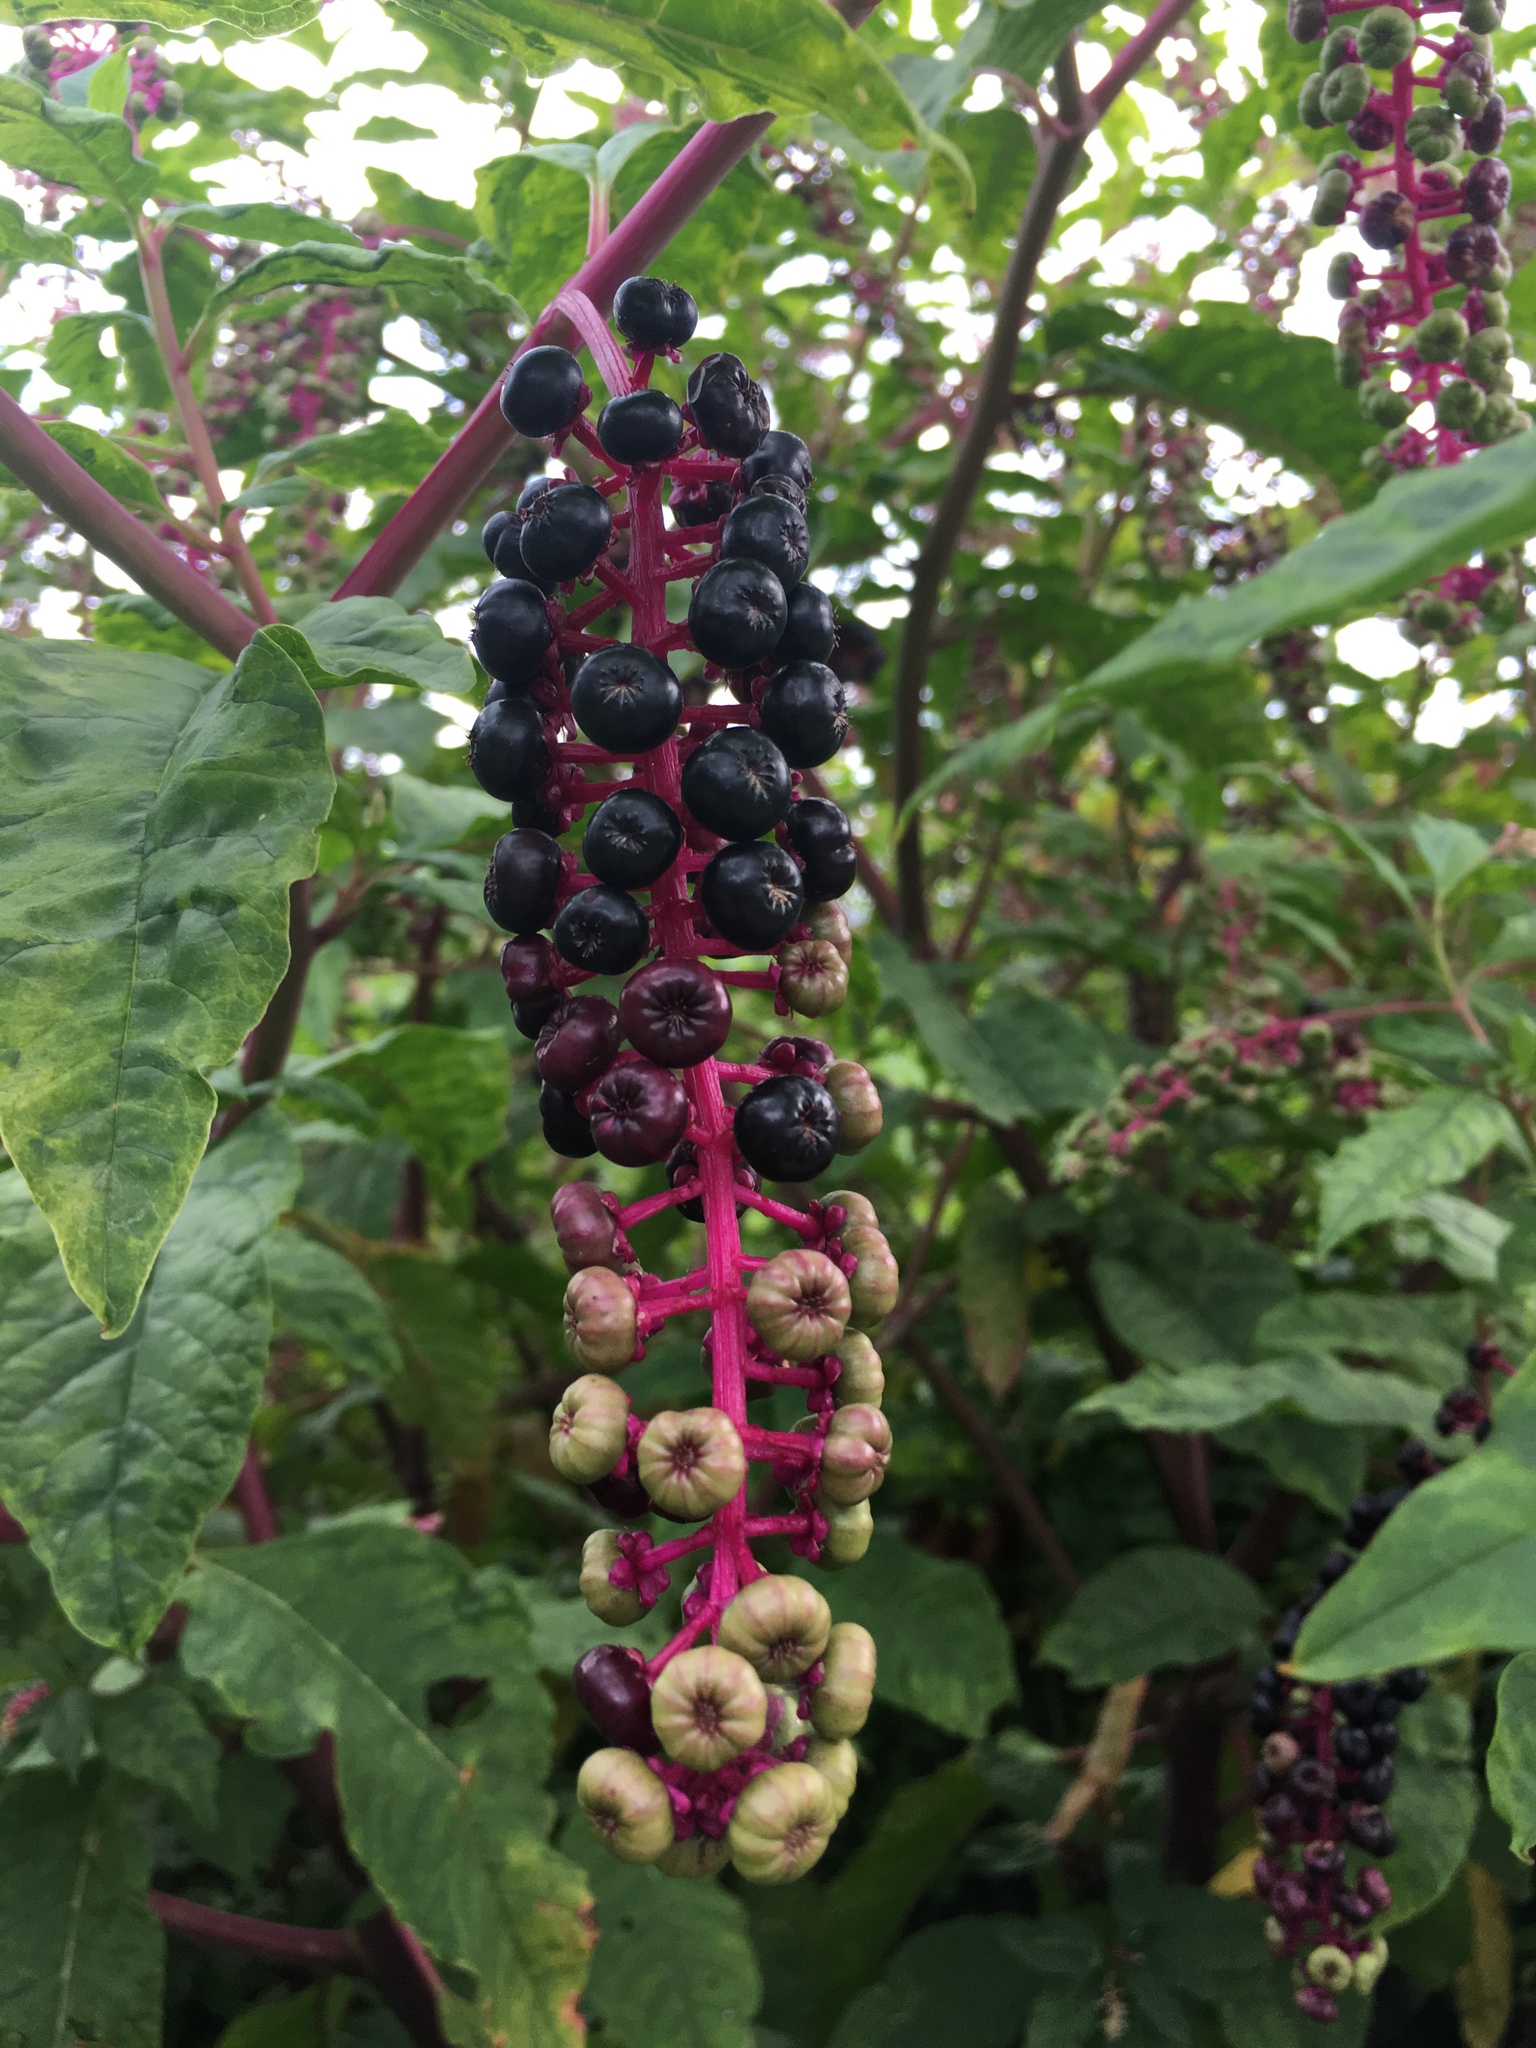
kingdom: Plantae
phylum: Tracheophyta
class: Magnoliopsida
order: Caryophyllales
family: Phytolaccaceae
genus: Phytolacca
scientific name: Phytolacca americana
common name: American pokeweed
